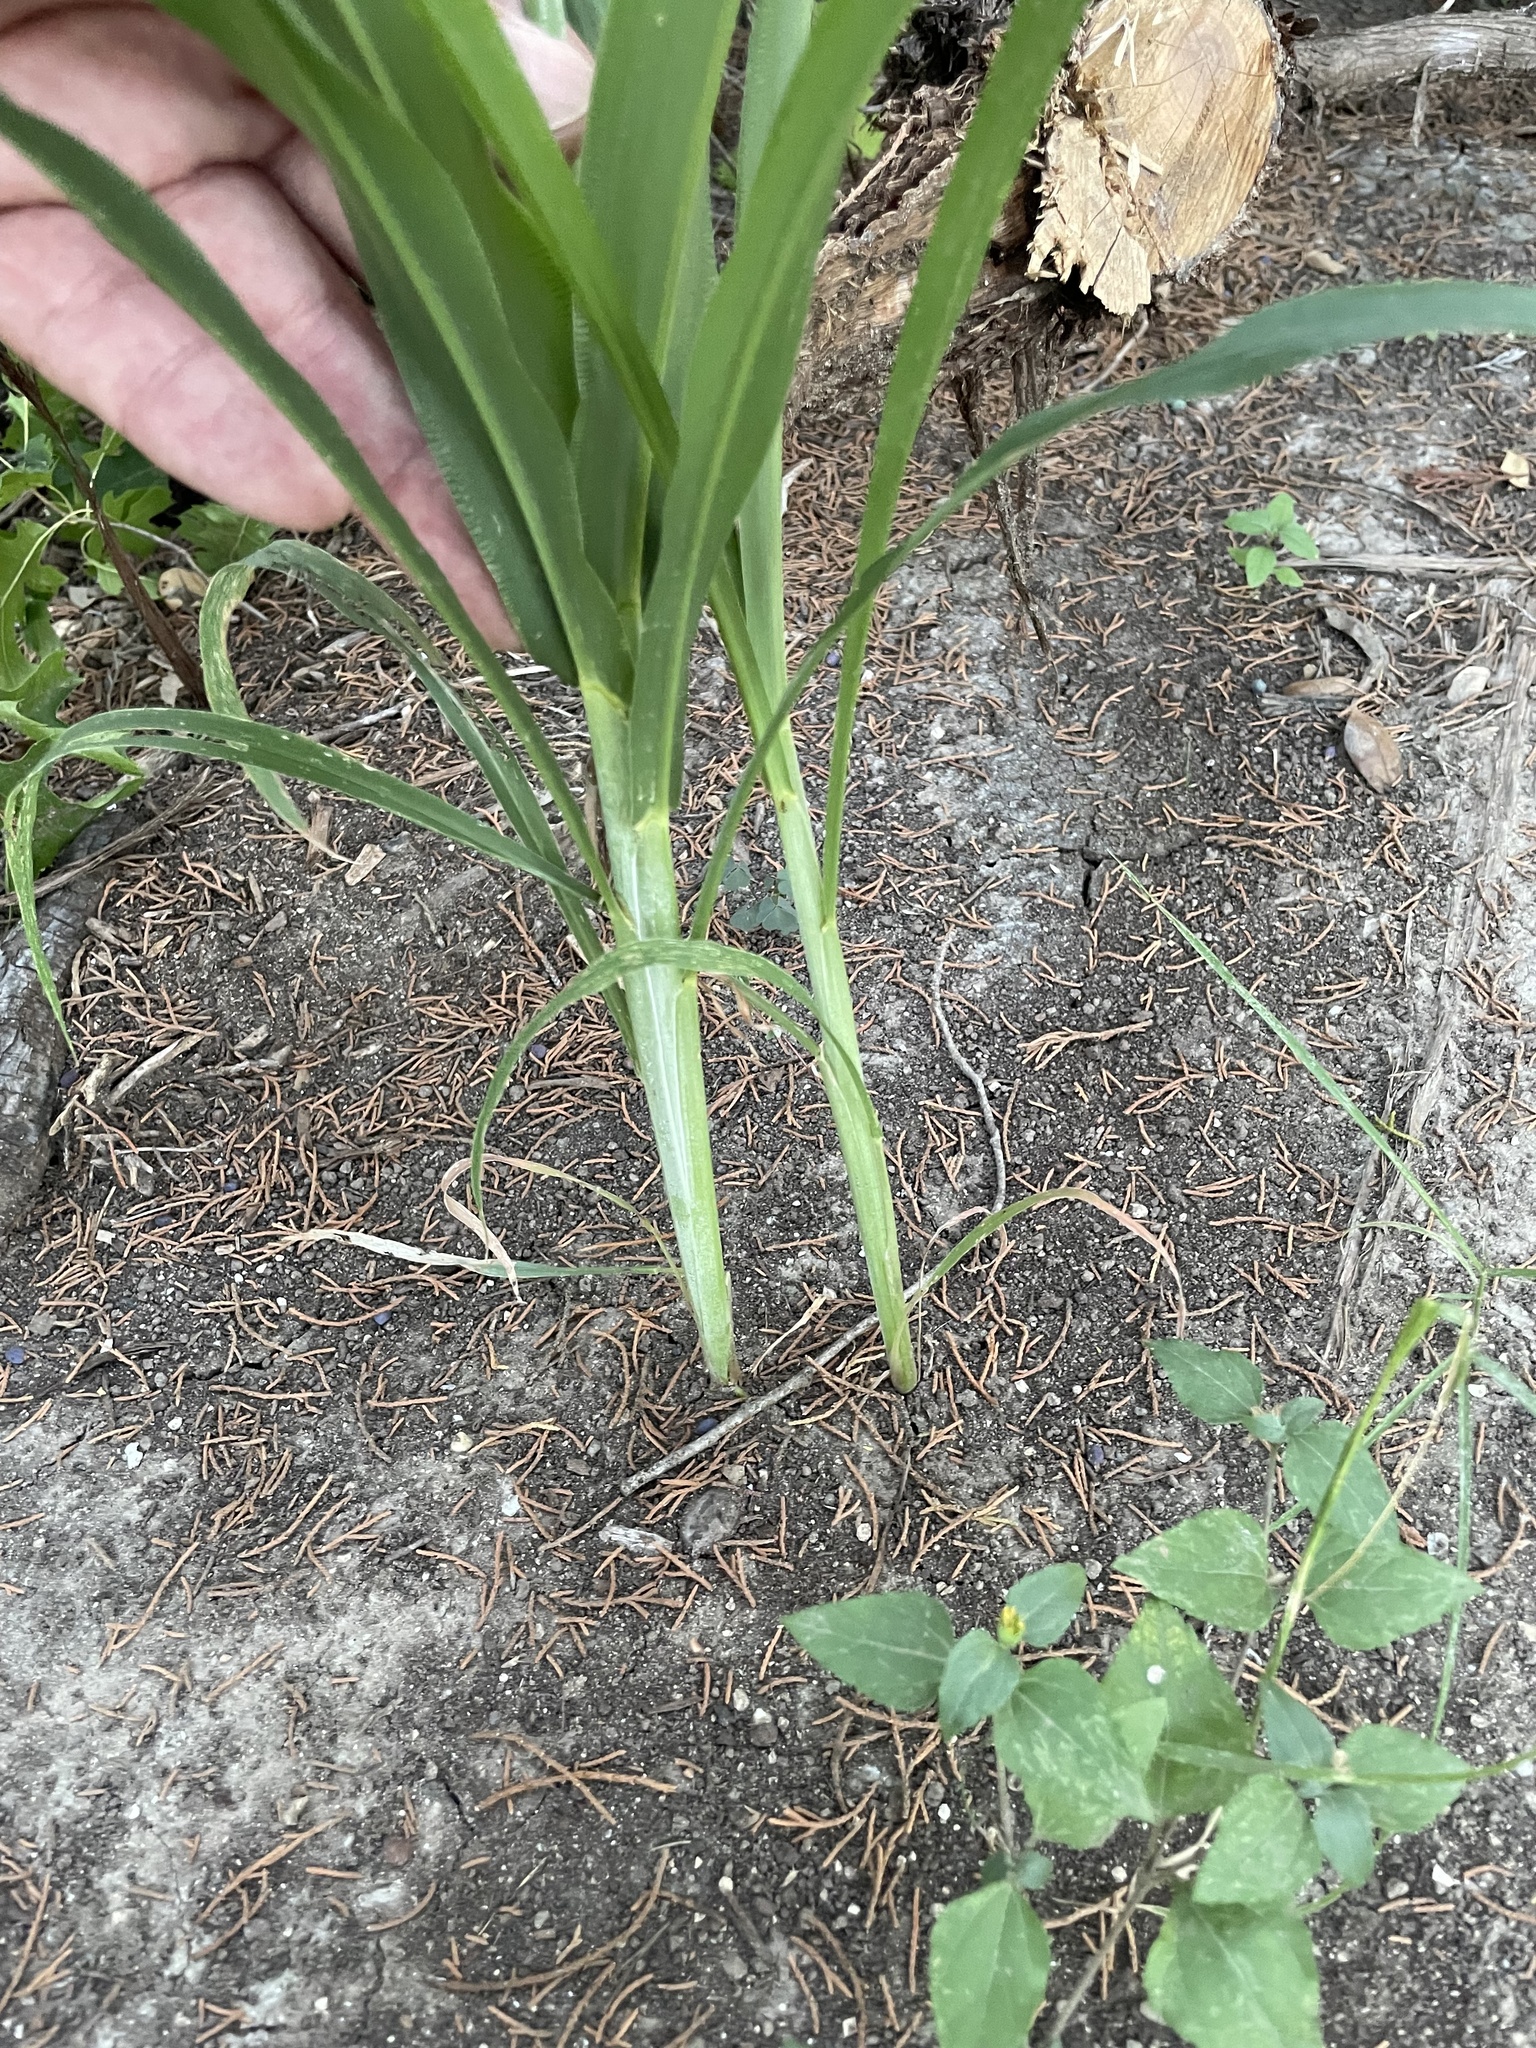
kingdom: Plantae
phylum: Tracheophyta
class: Liliopsida
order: Poales
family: Poaceae
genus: Sorghum
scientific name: Sorghum bicolor
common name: Sorghum
